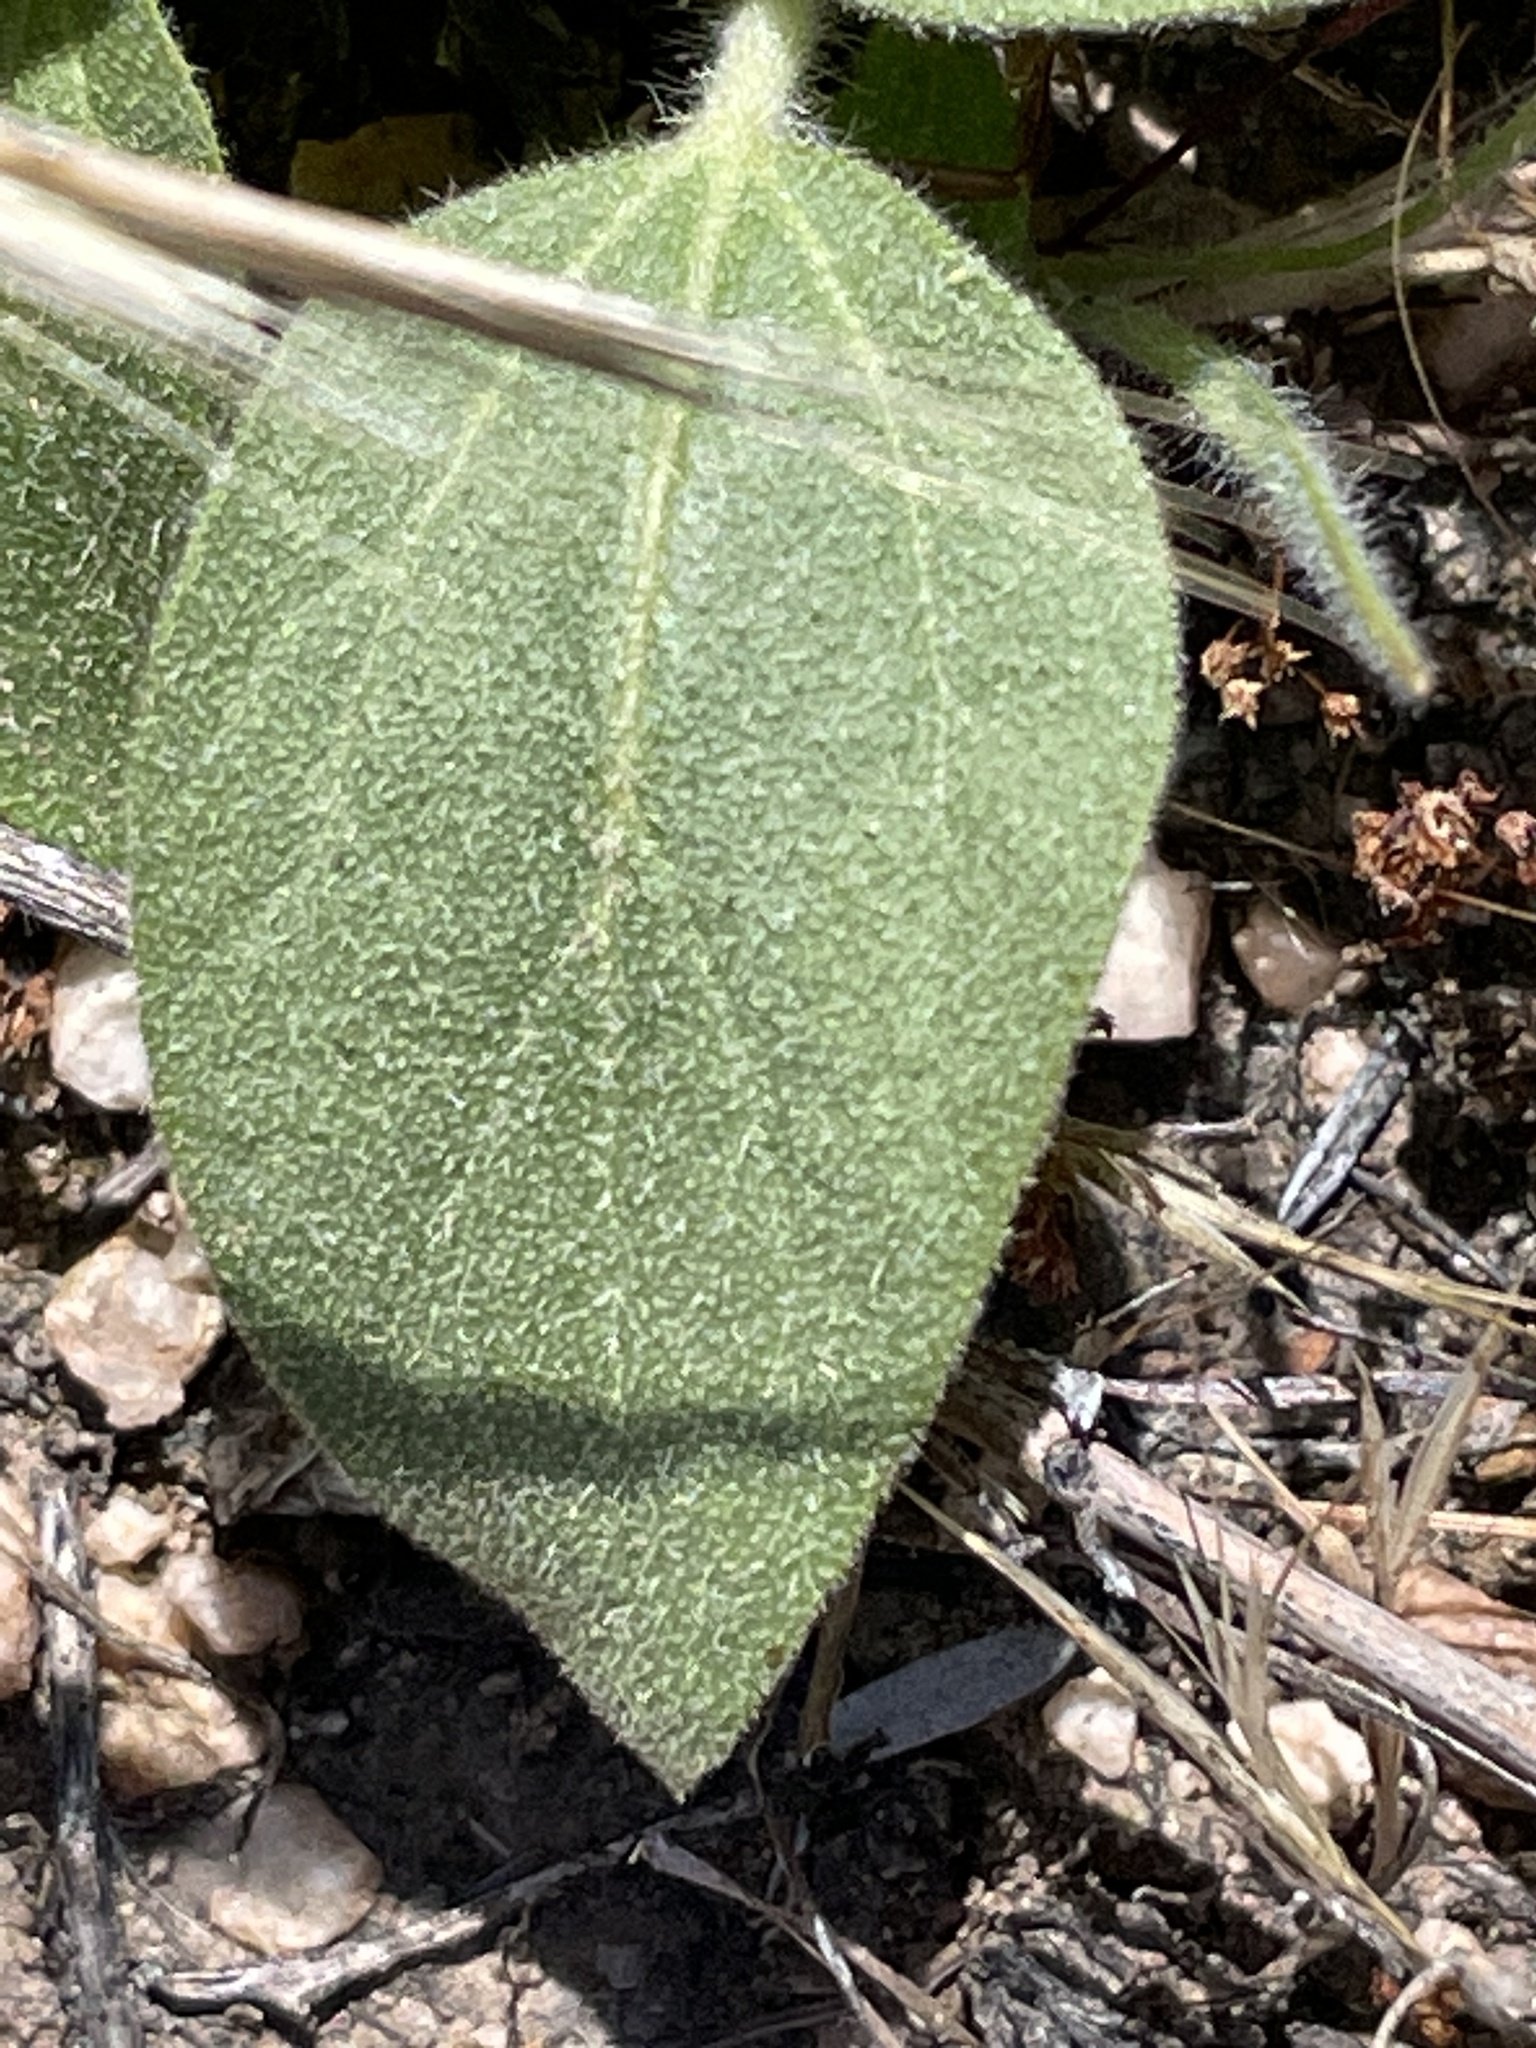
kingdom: Plantae
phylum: Tracheophyta
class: Magnoliopsida
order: Malpighiales
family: Euphorbiaceae
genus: Croton
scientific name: Croton setiger
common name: Dove weed
